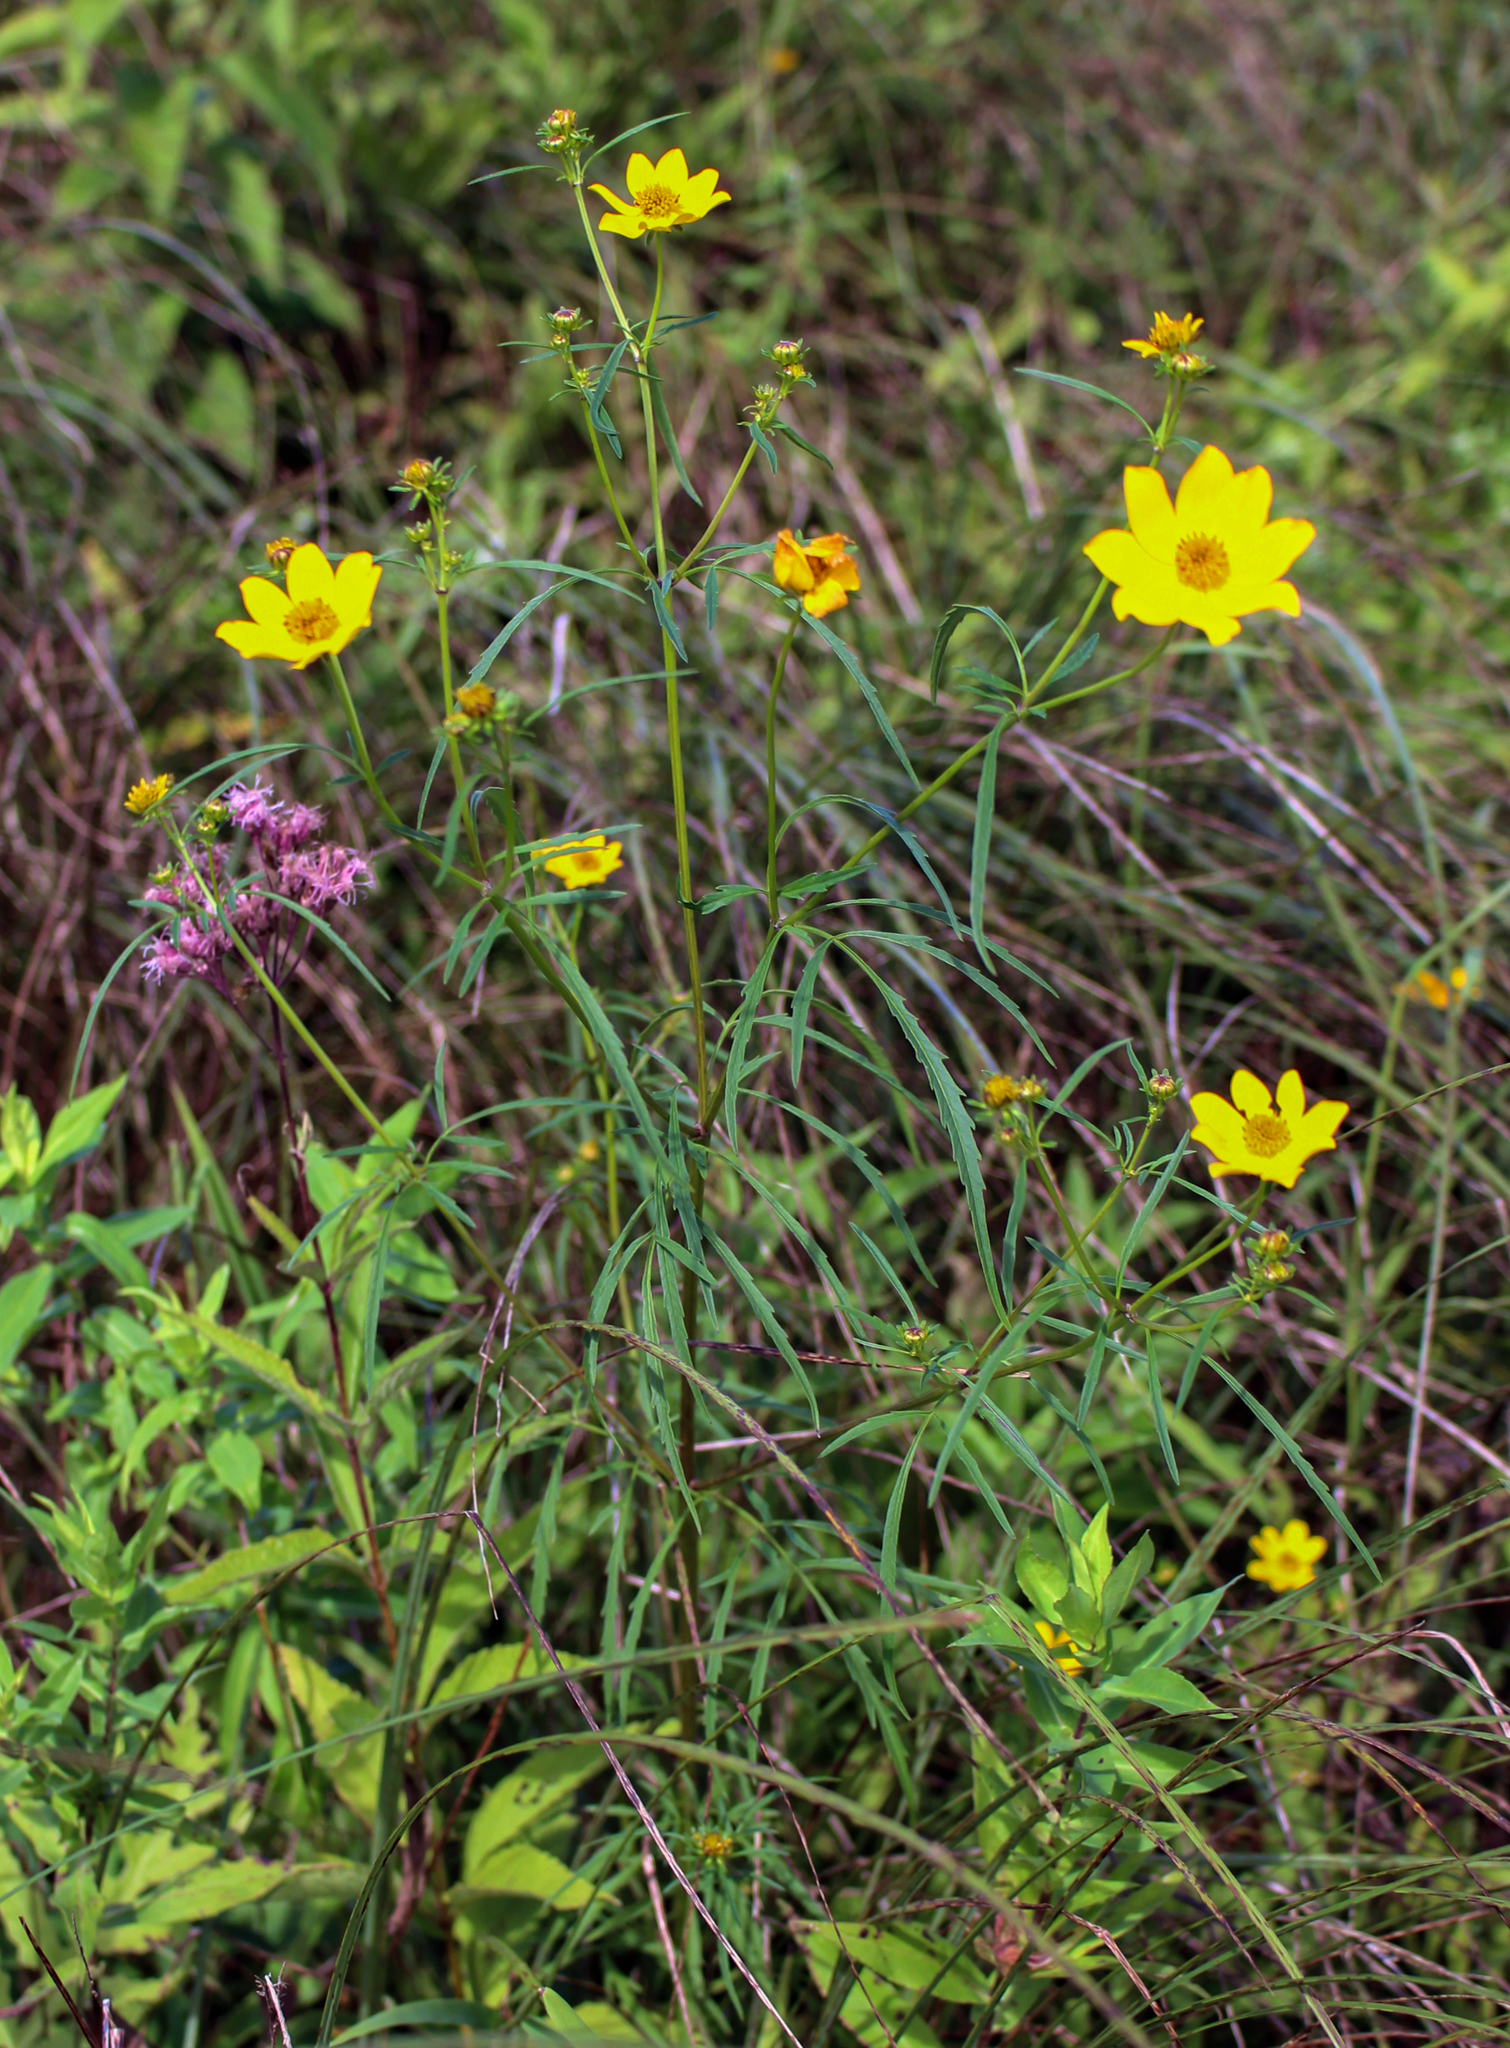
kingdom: Plantae
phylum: Tracheophyta
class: Magnoliopsida
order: Asterales
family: Asteraceae
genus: Bidens
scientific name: Bidens trichosperma
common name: Crowned beggarticks
